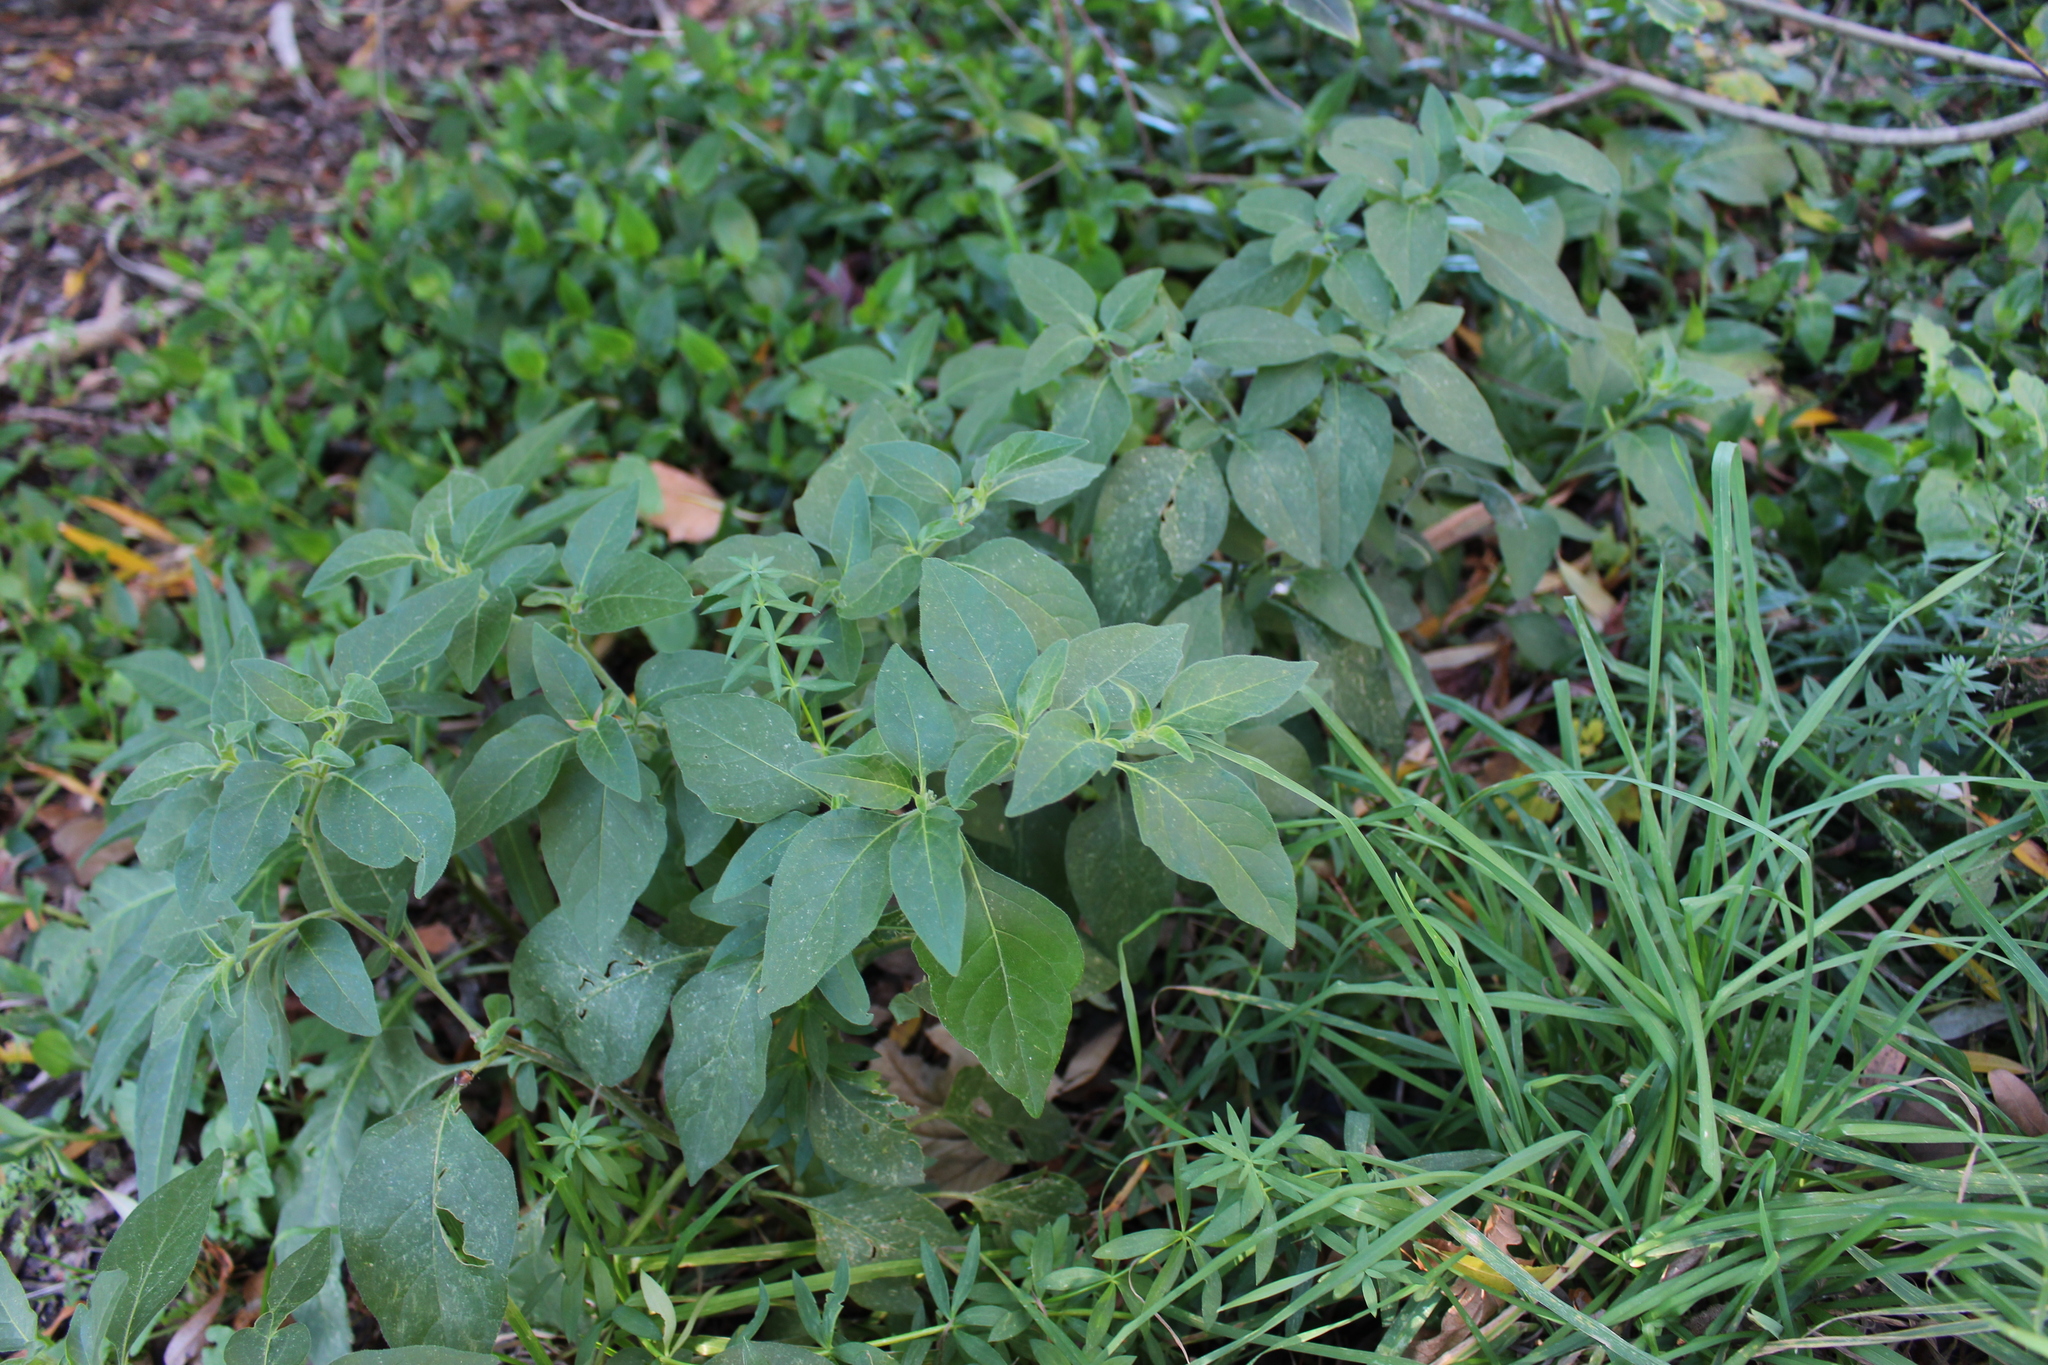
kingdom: Plantae
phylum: Tracheophyta
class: Magnoliopsida
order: Solanales
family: Solanaceae
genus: Solanum
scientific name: Solanum chenopodioides
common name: Tall nightshade
